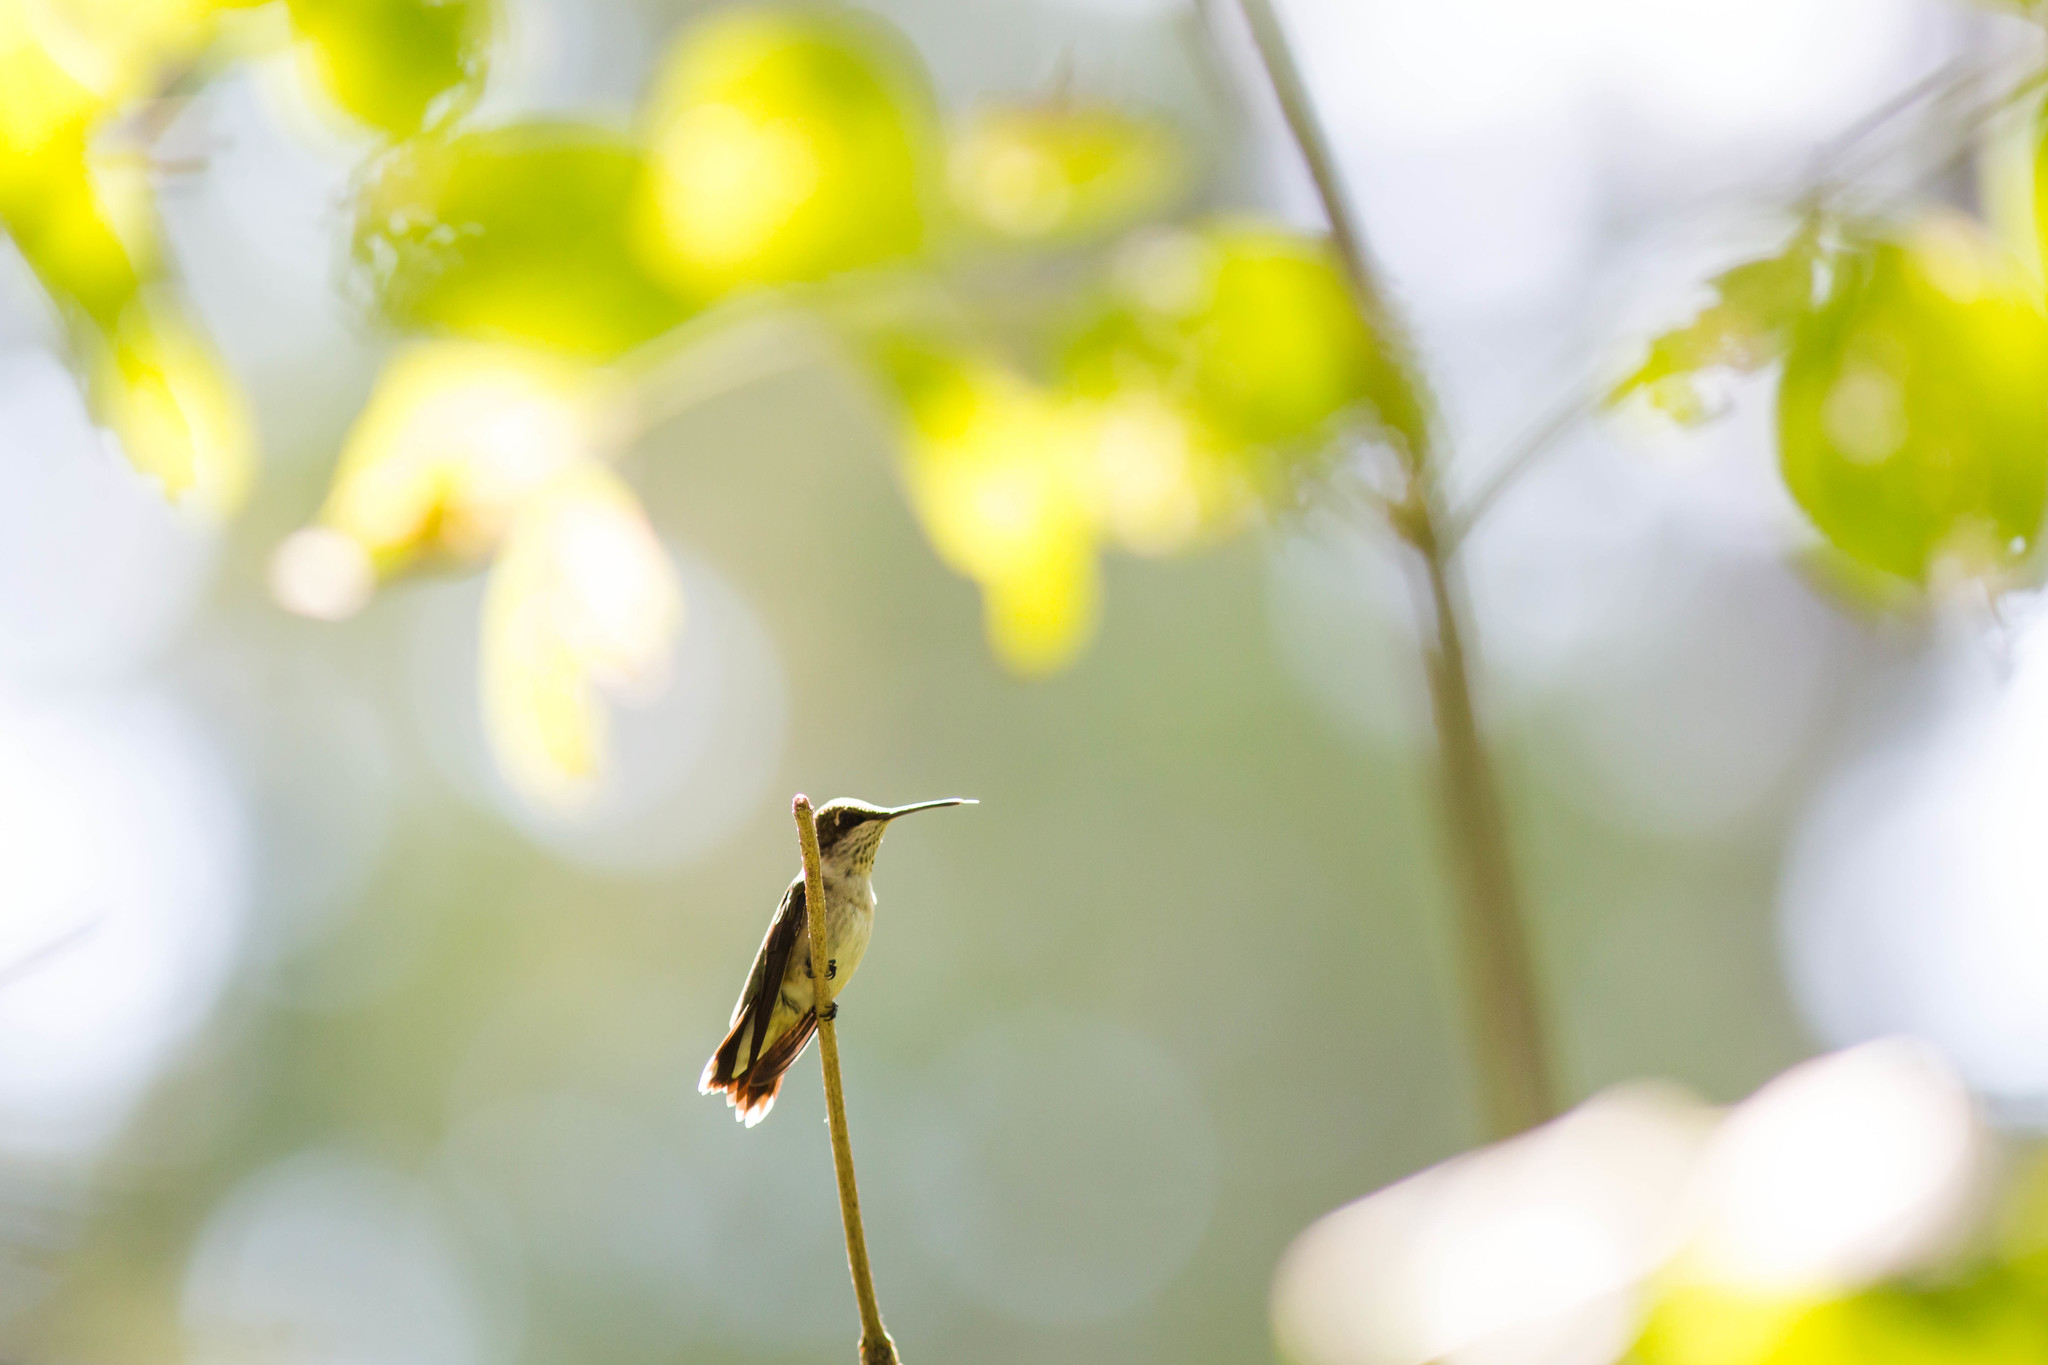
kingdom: Animalia
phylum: Chordata
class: Aves
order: Apodiformes
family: Trochilidae
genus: Archilochus
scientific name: Archilochus colubris
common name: Ruby-throated hummingbird
